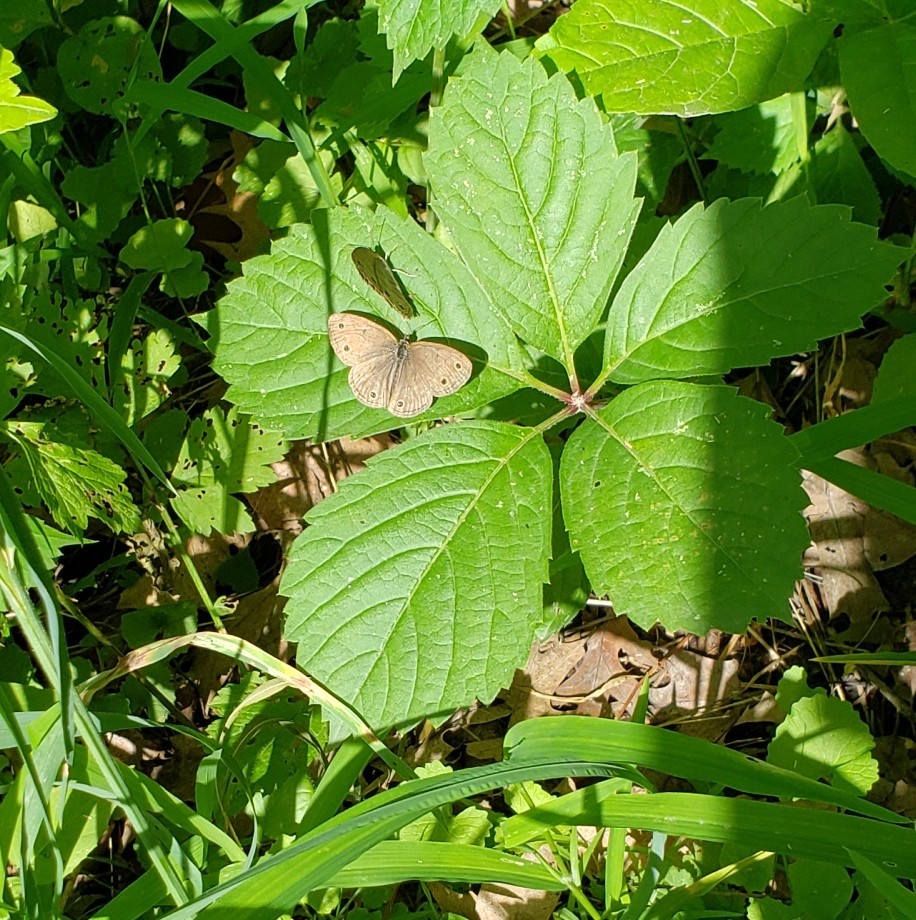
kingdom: Animalia
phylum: Arthropoda
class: Insecta
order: Lepidoptera
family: Nymphalidae
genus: Euptychia
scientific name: Euptychia cymela
